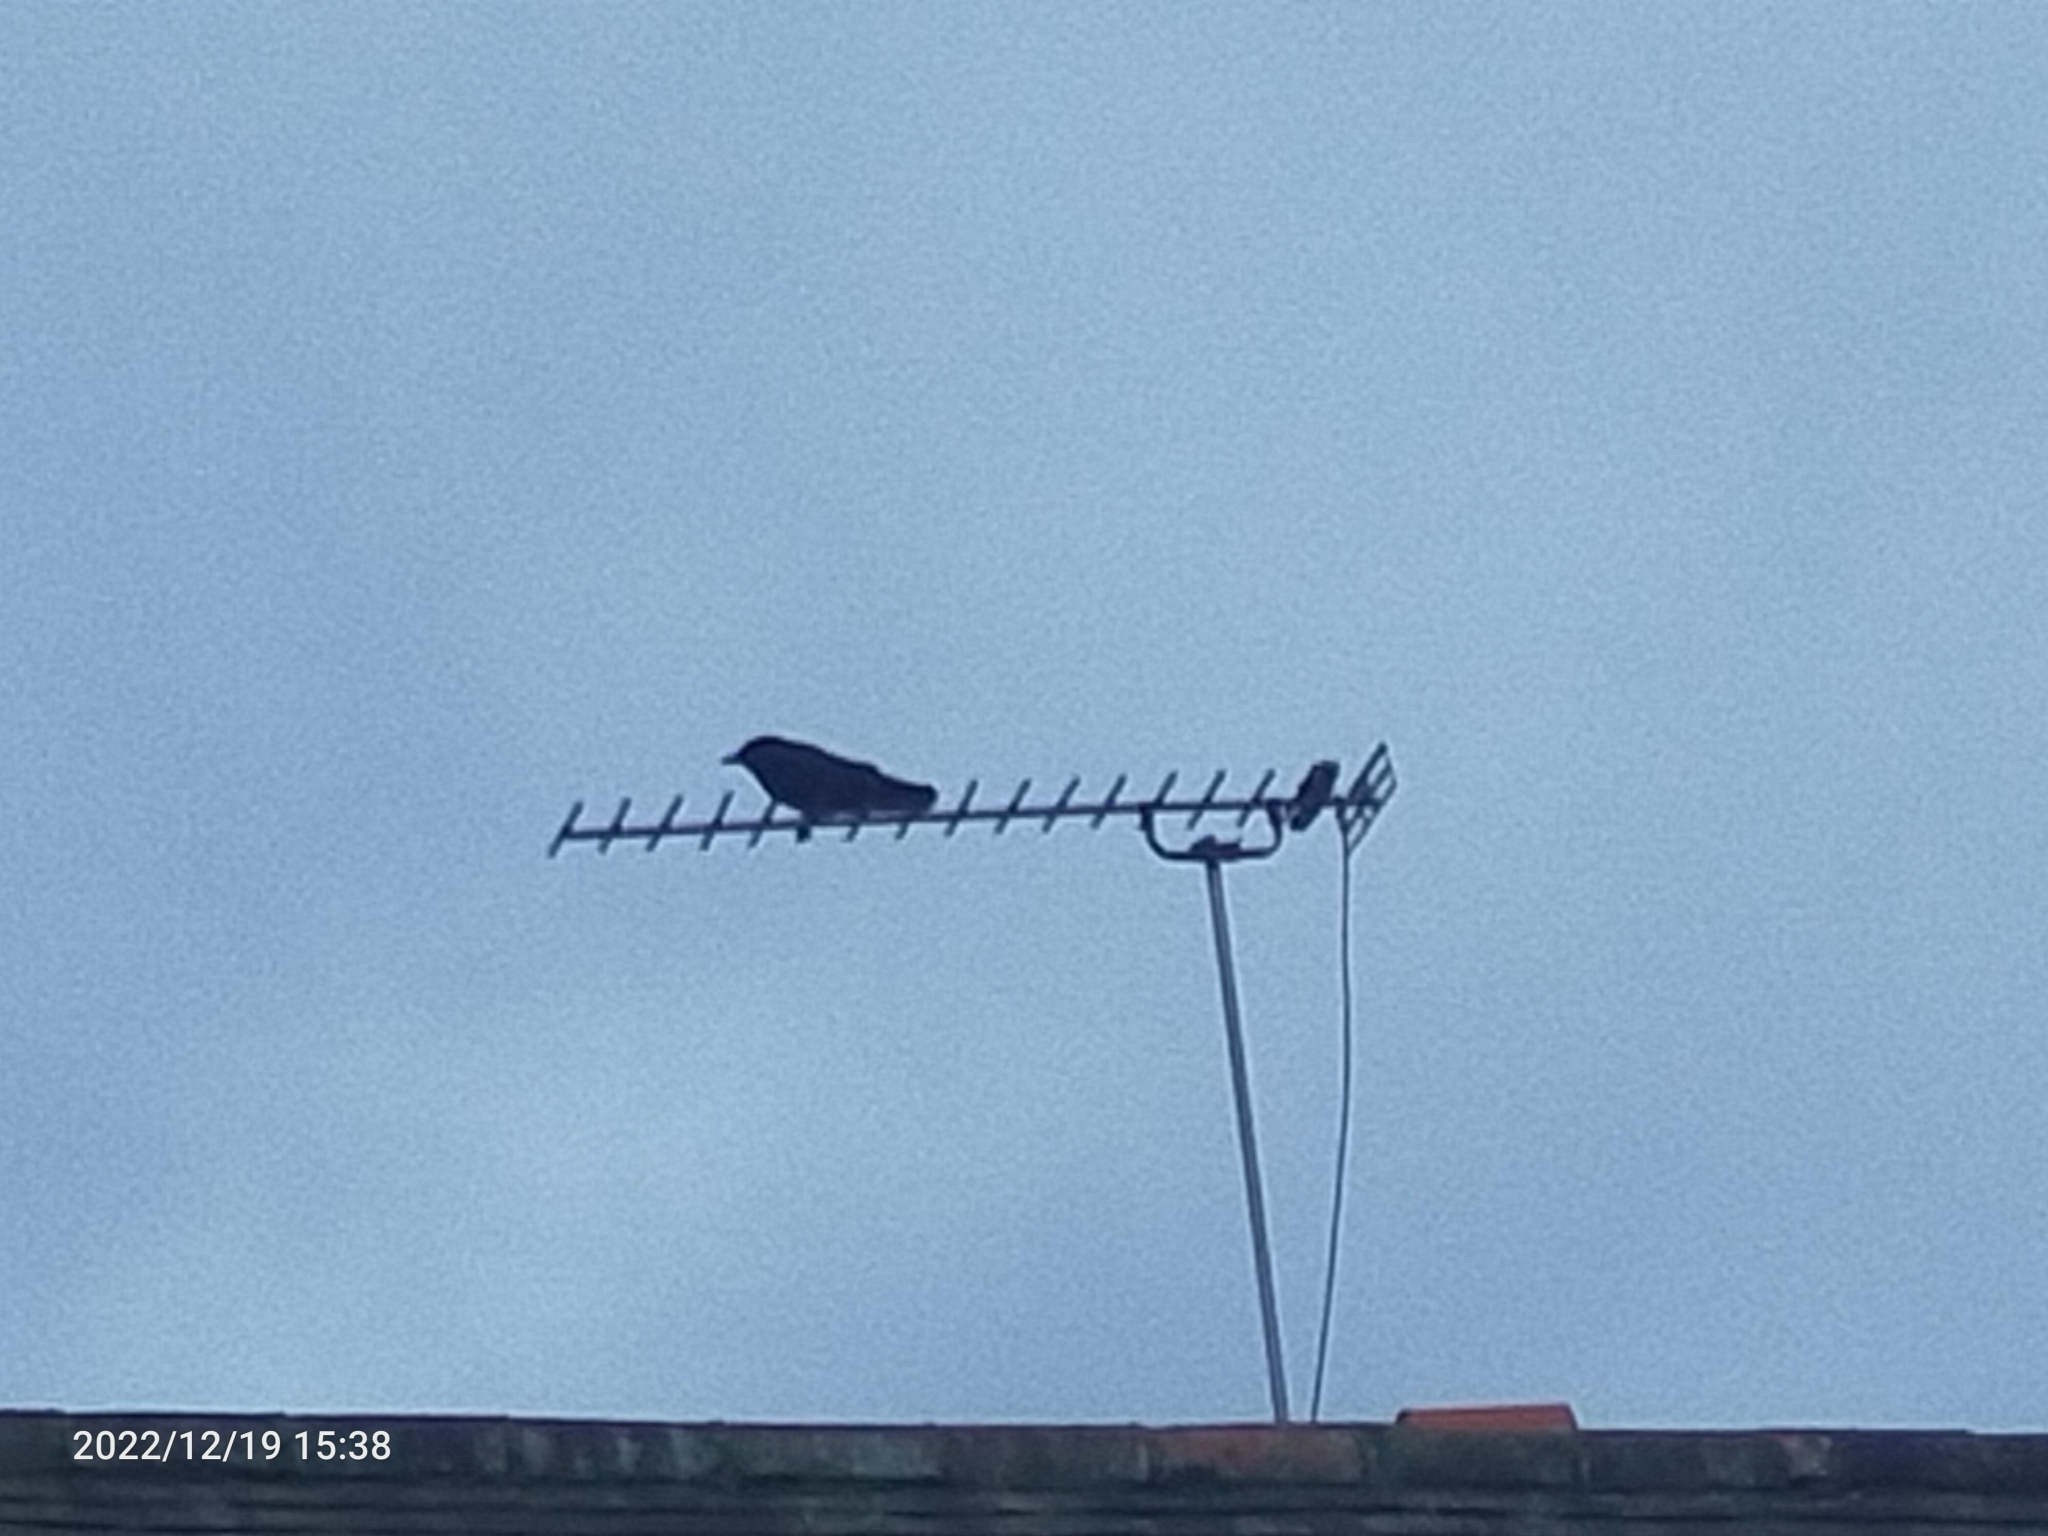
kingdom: Animalia
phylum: Chordata
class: Aves
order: Passeriformes
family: Corvidae
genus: Coloeus
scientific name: Coloeus monedula
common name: Western jackdaw
